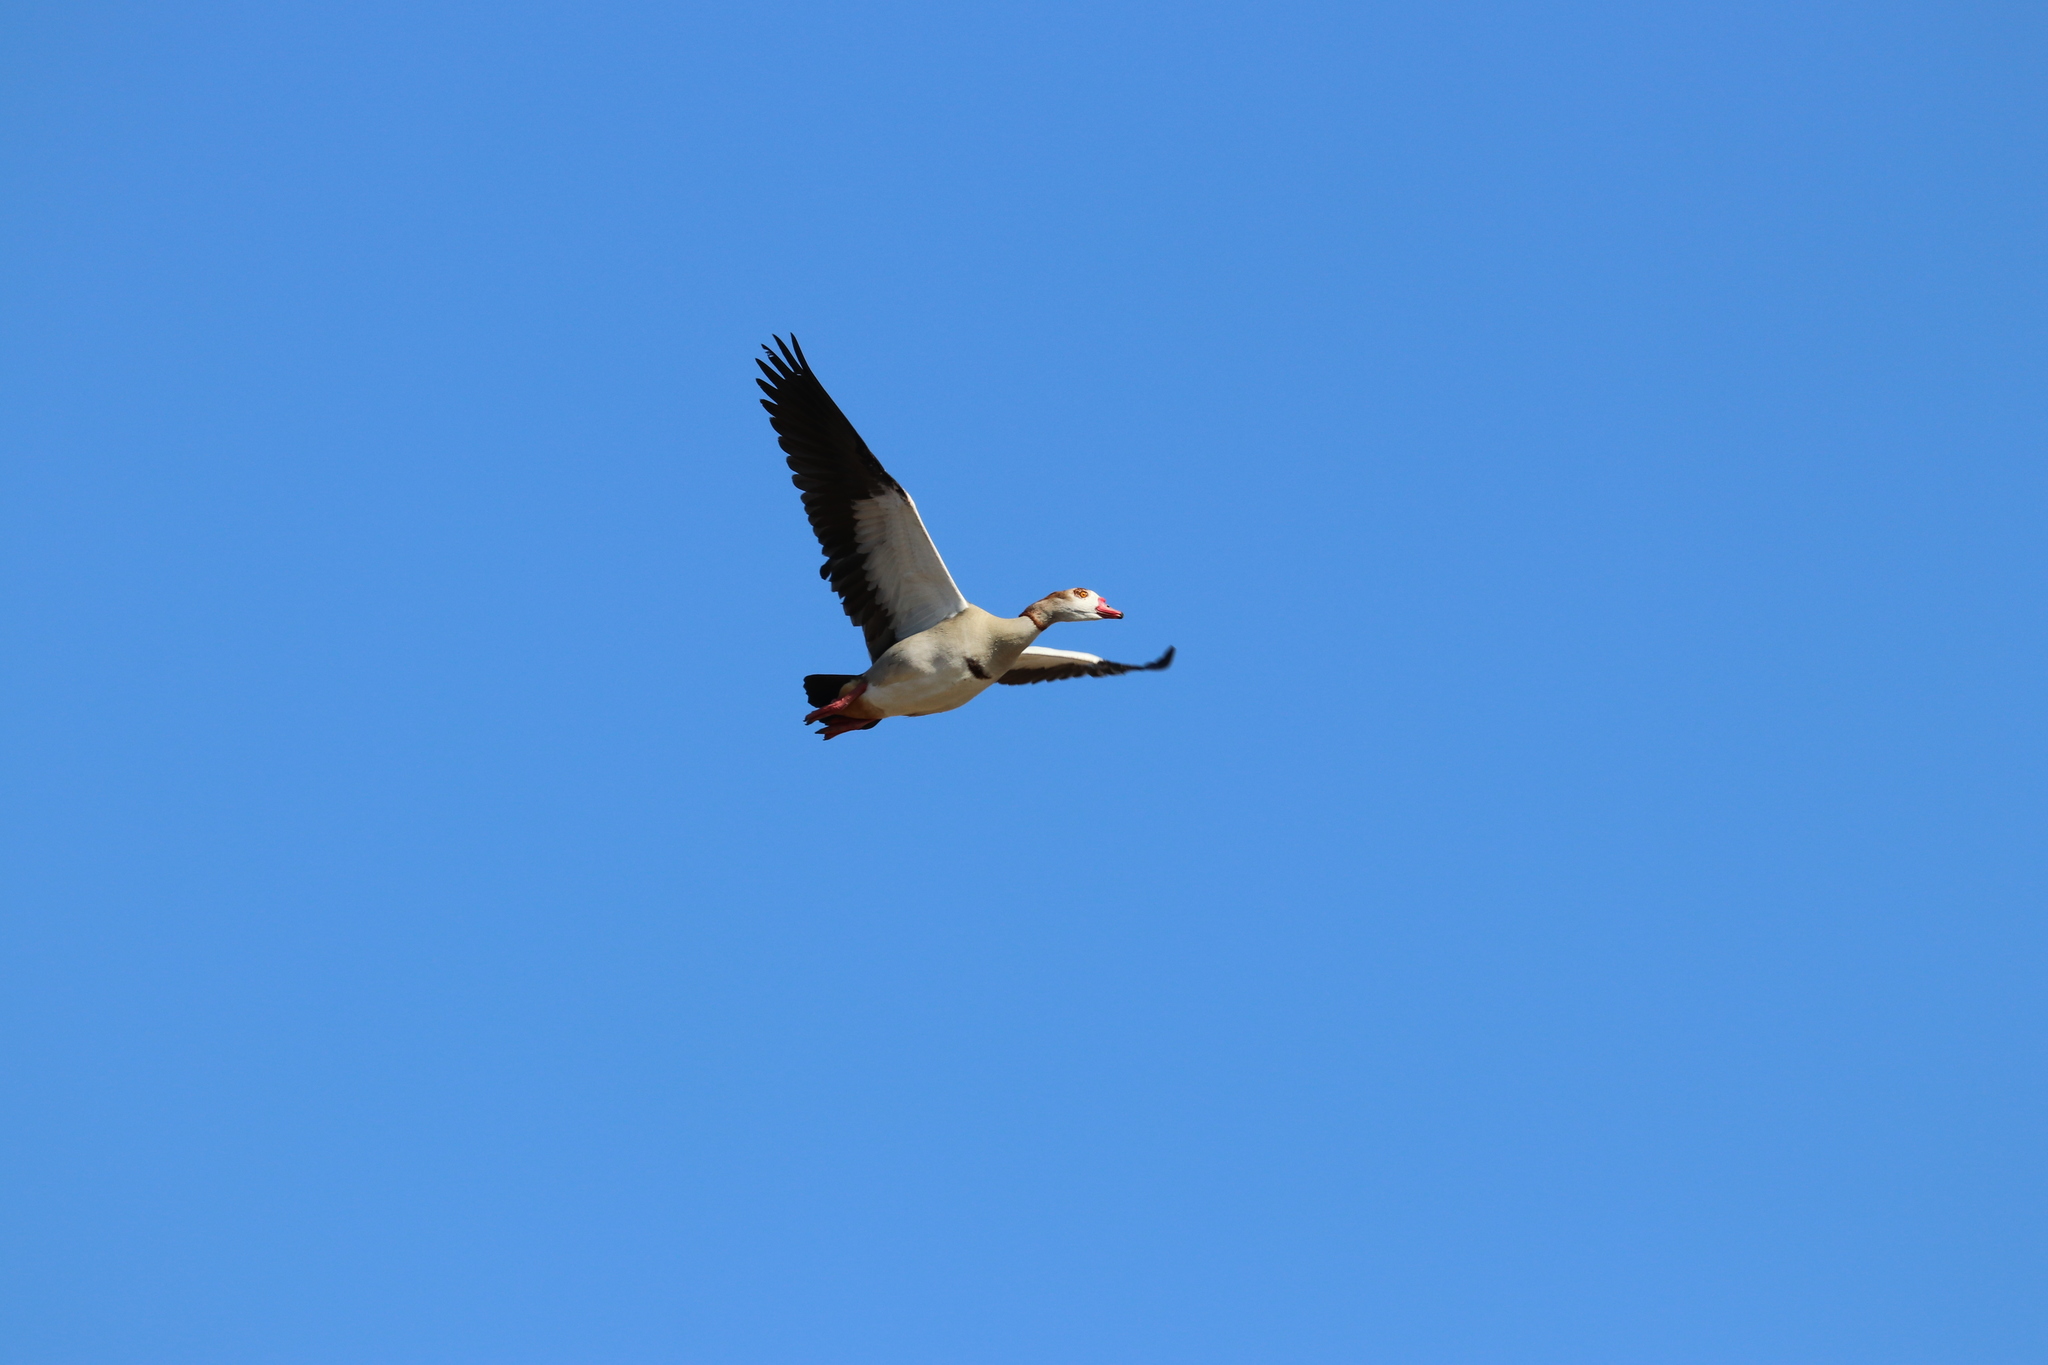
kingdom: Animalia
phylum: Chordata
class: Aves
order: Anseriformes
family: Anatidae
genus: Alopochen
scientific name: Alopochen aegyptiaca
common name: Egyptian goose
